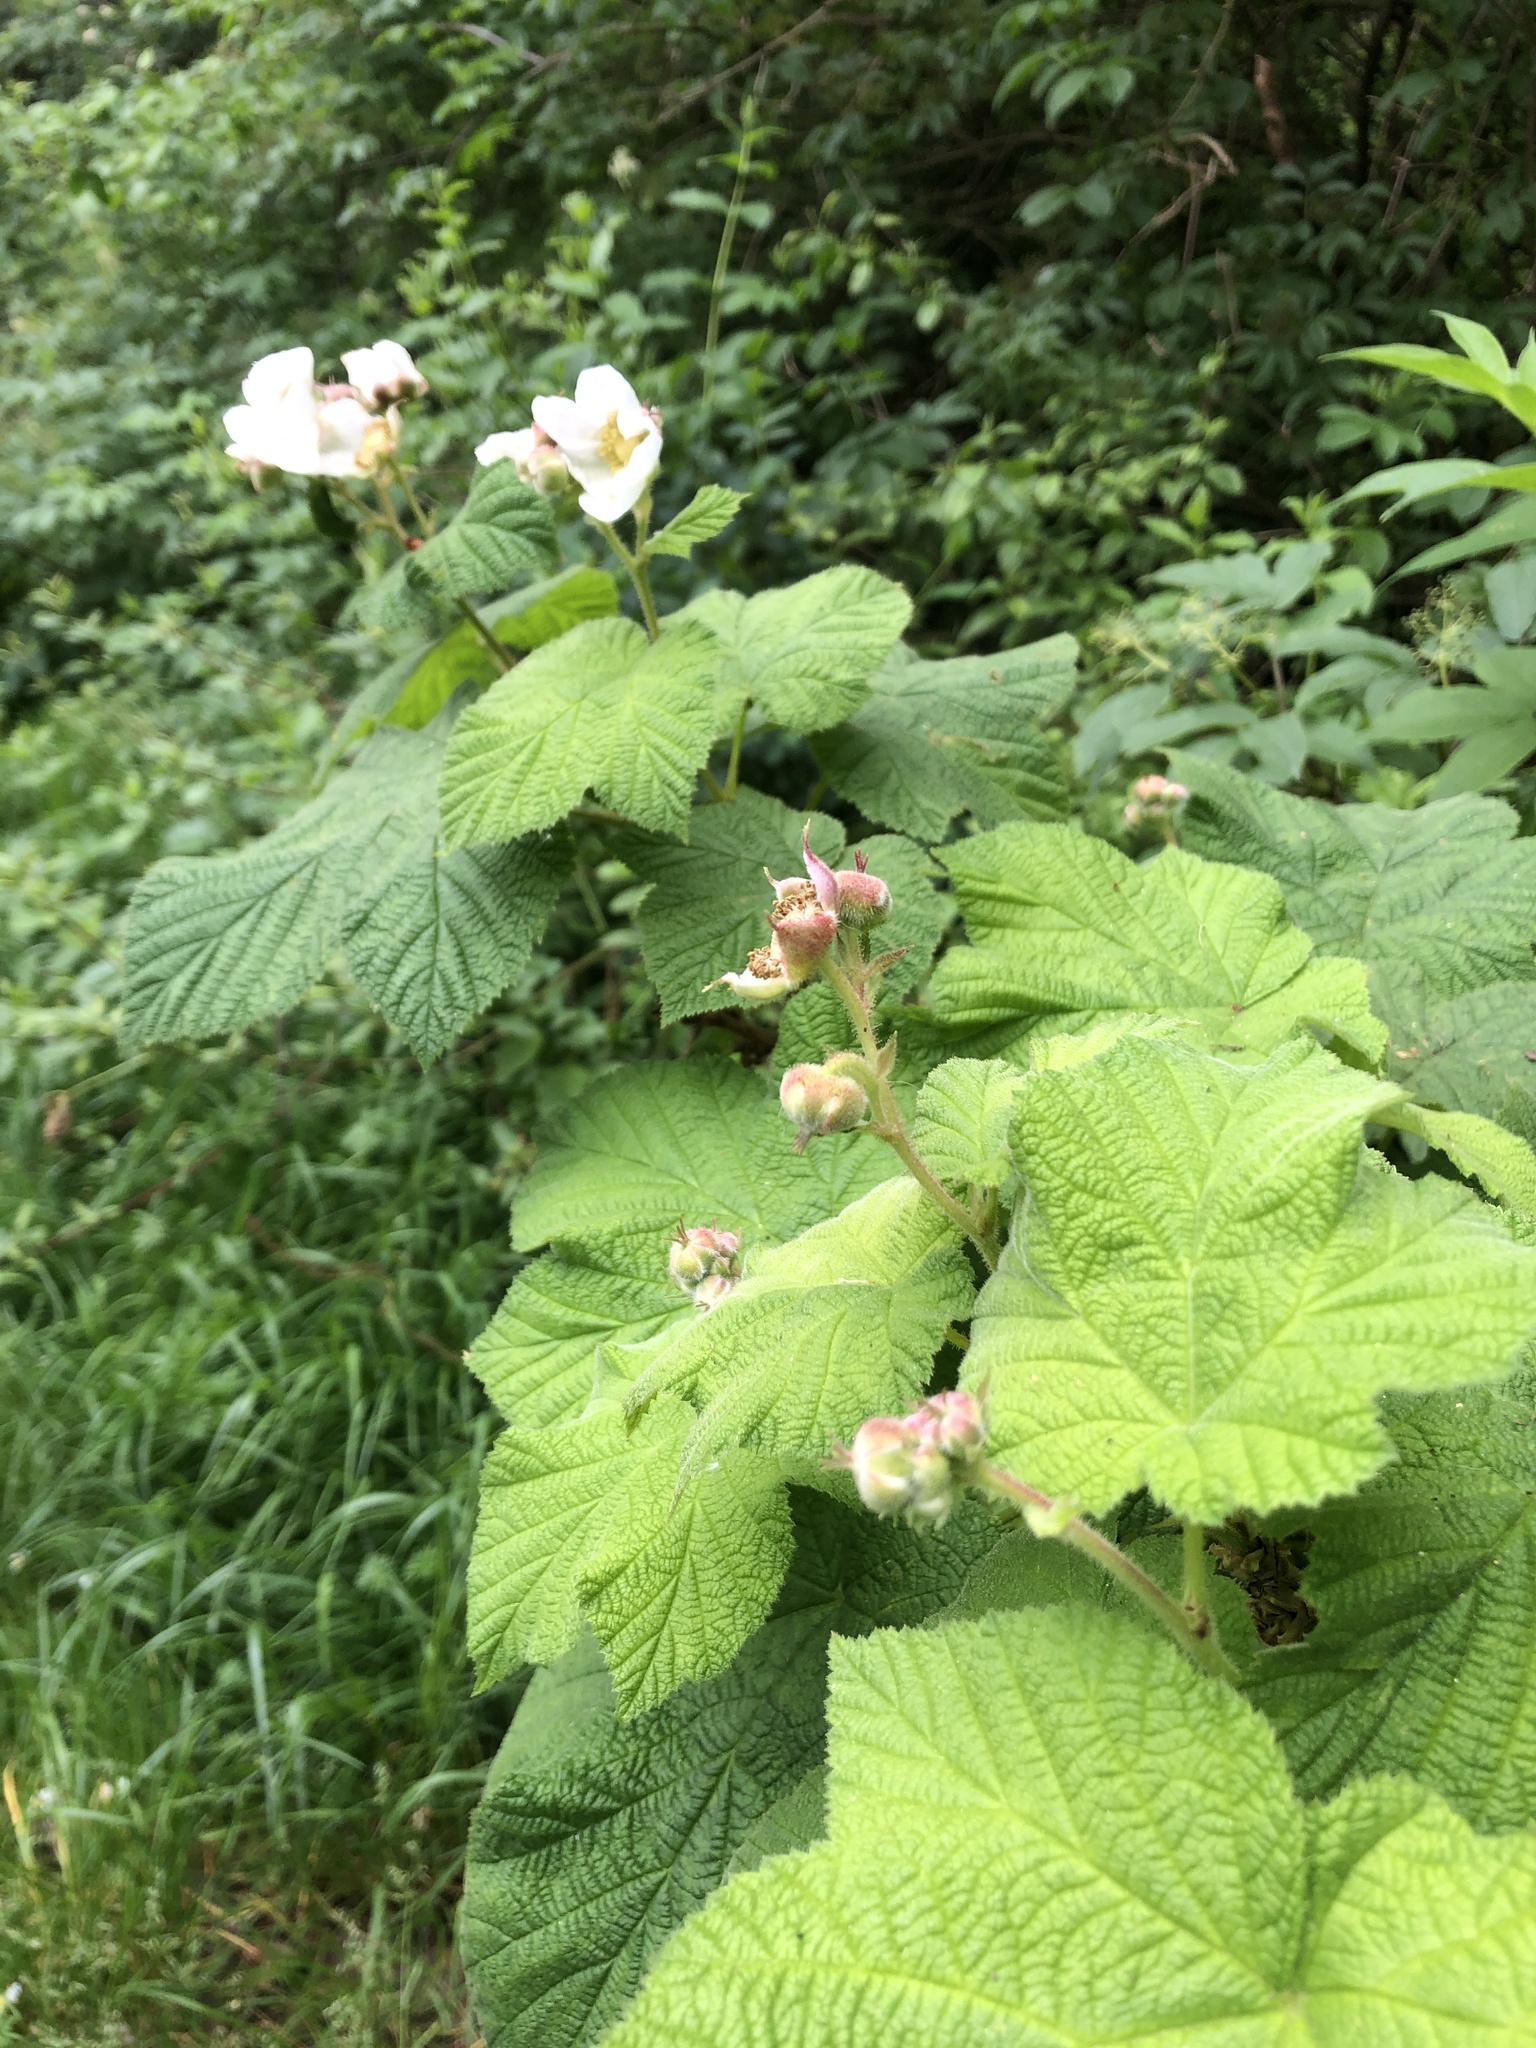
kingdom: Plantae
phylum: Tracheophyta
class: Magnoliopsida
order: Rosales
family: Rosaceae
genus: Rubus
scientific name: Rubus parviflorus
